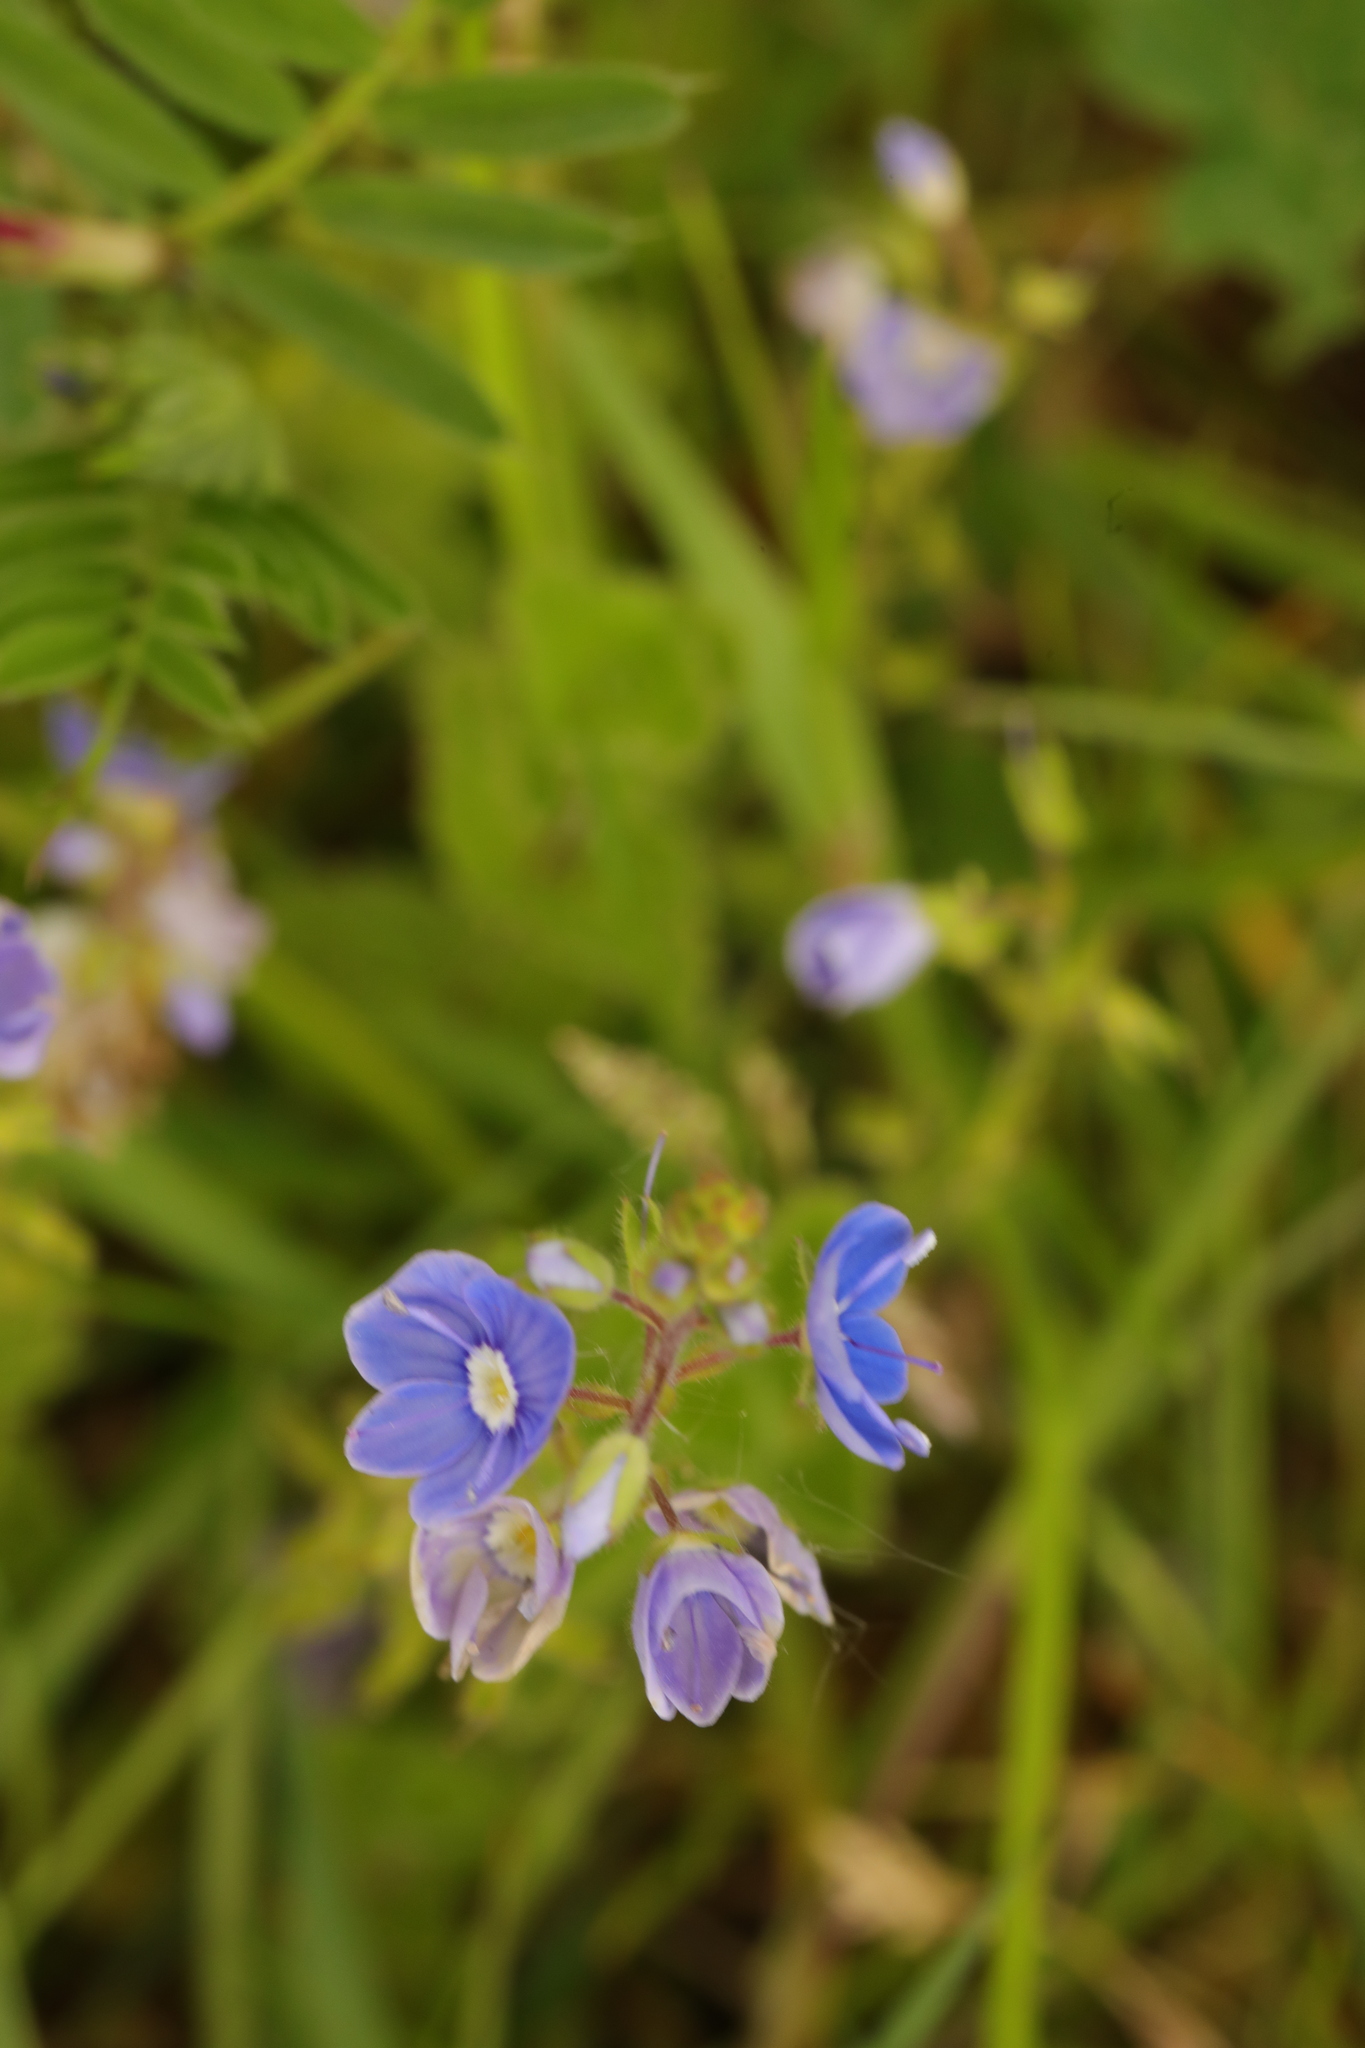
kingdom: Plantae
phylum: Tracheophyta
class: Magnoliopsida
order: Lamiales
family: Plantaginaceae
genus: Veronica
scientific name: Veronica chamaedrys
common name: Germander speedwell
